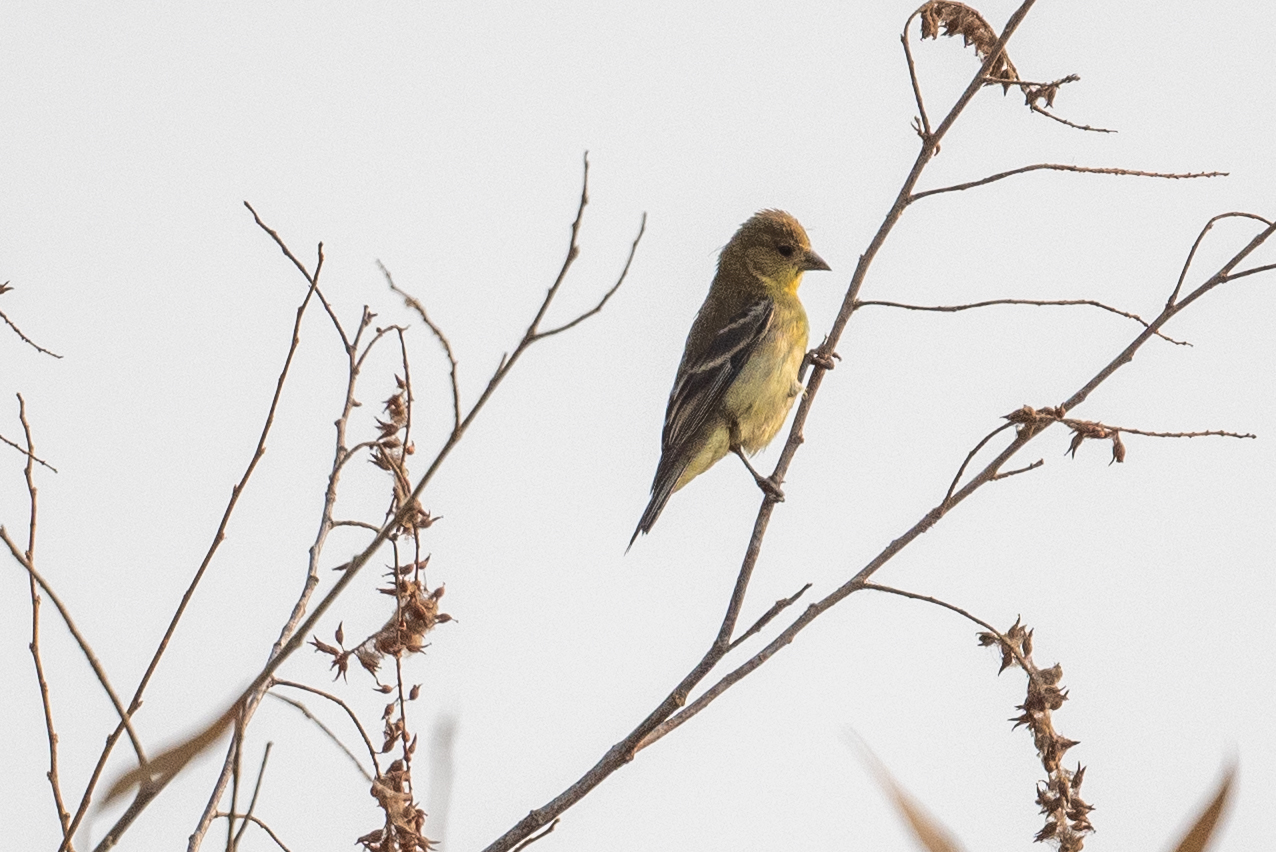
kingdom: Animalia
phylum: Chordata
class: Aves
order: Passeriformes
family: Fringillidae
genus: Spinus
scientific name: Spinus psaltria
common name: Lesser goldfinch
